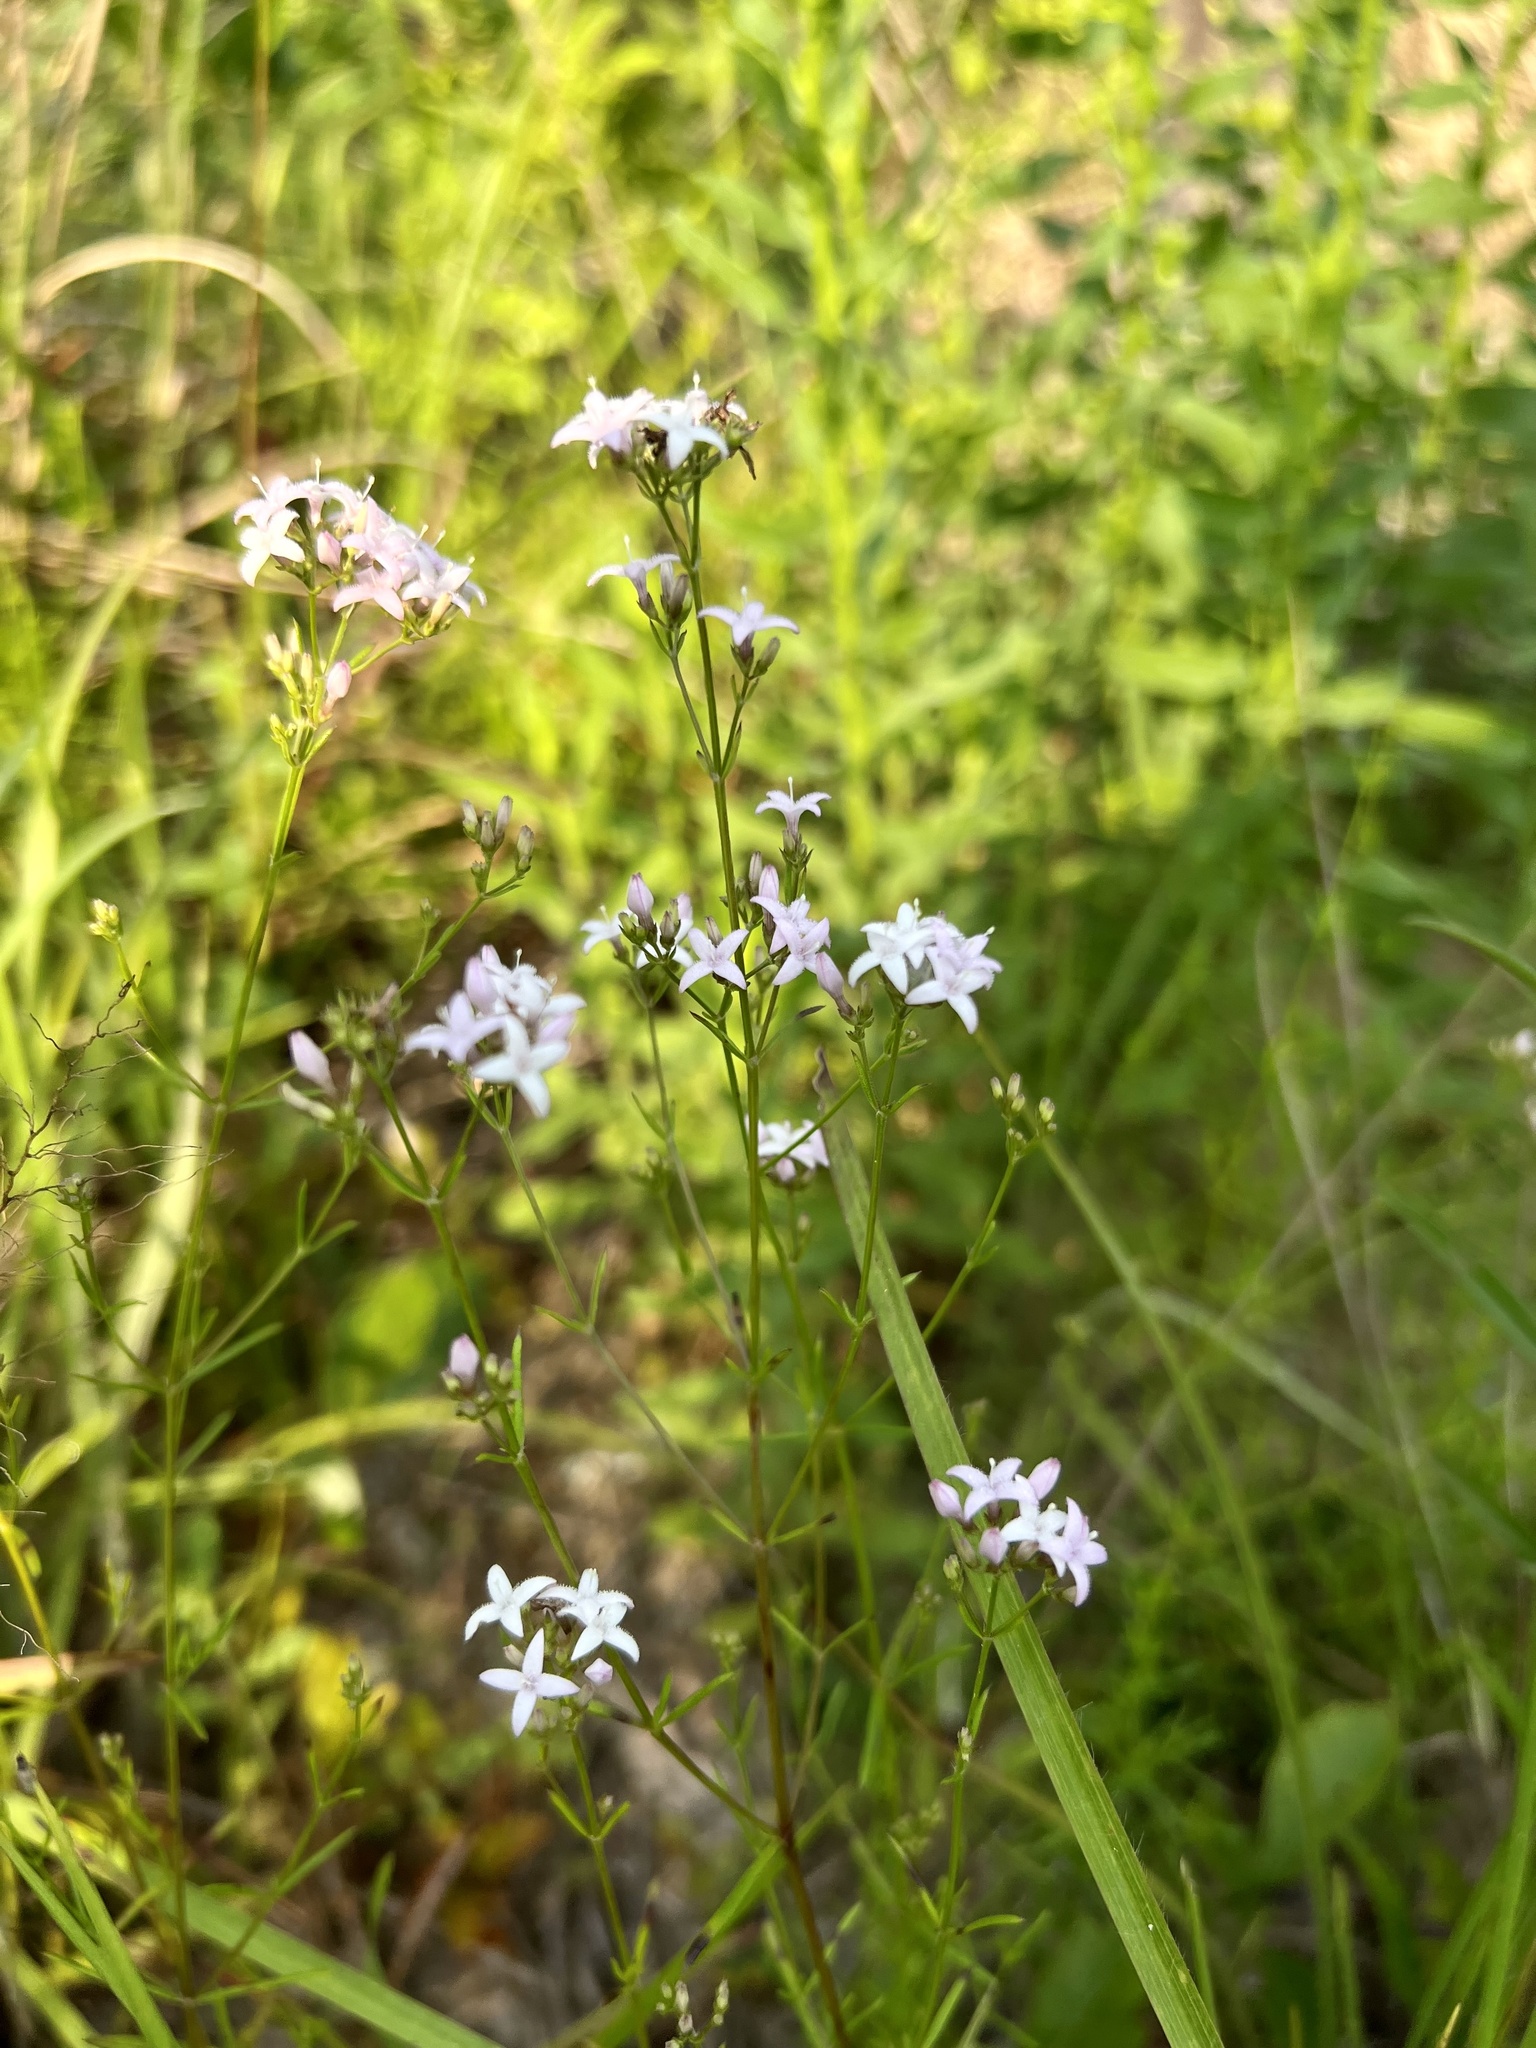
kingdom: Plantae
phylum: Tracheophyta
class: Magnoliopsida
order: Gentianales
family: Rubiaceae
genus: Stenaria
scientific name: Stenaria nigricans
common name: Diamondflowers
